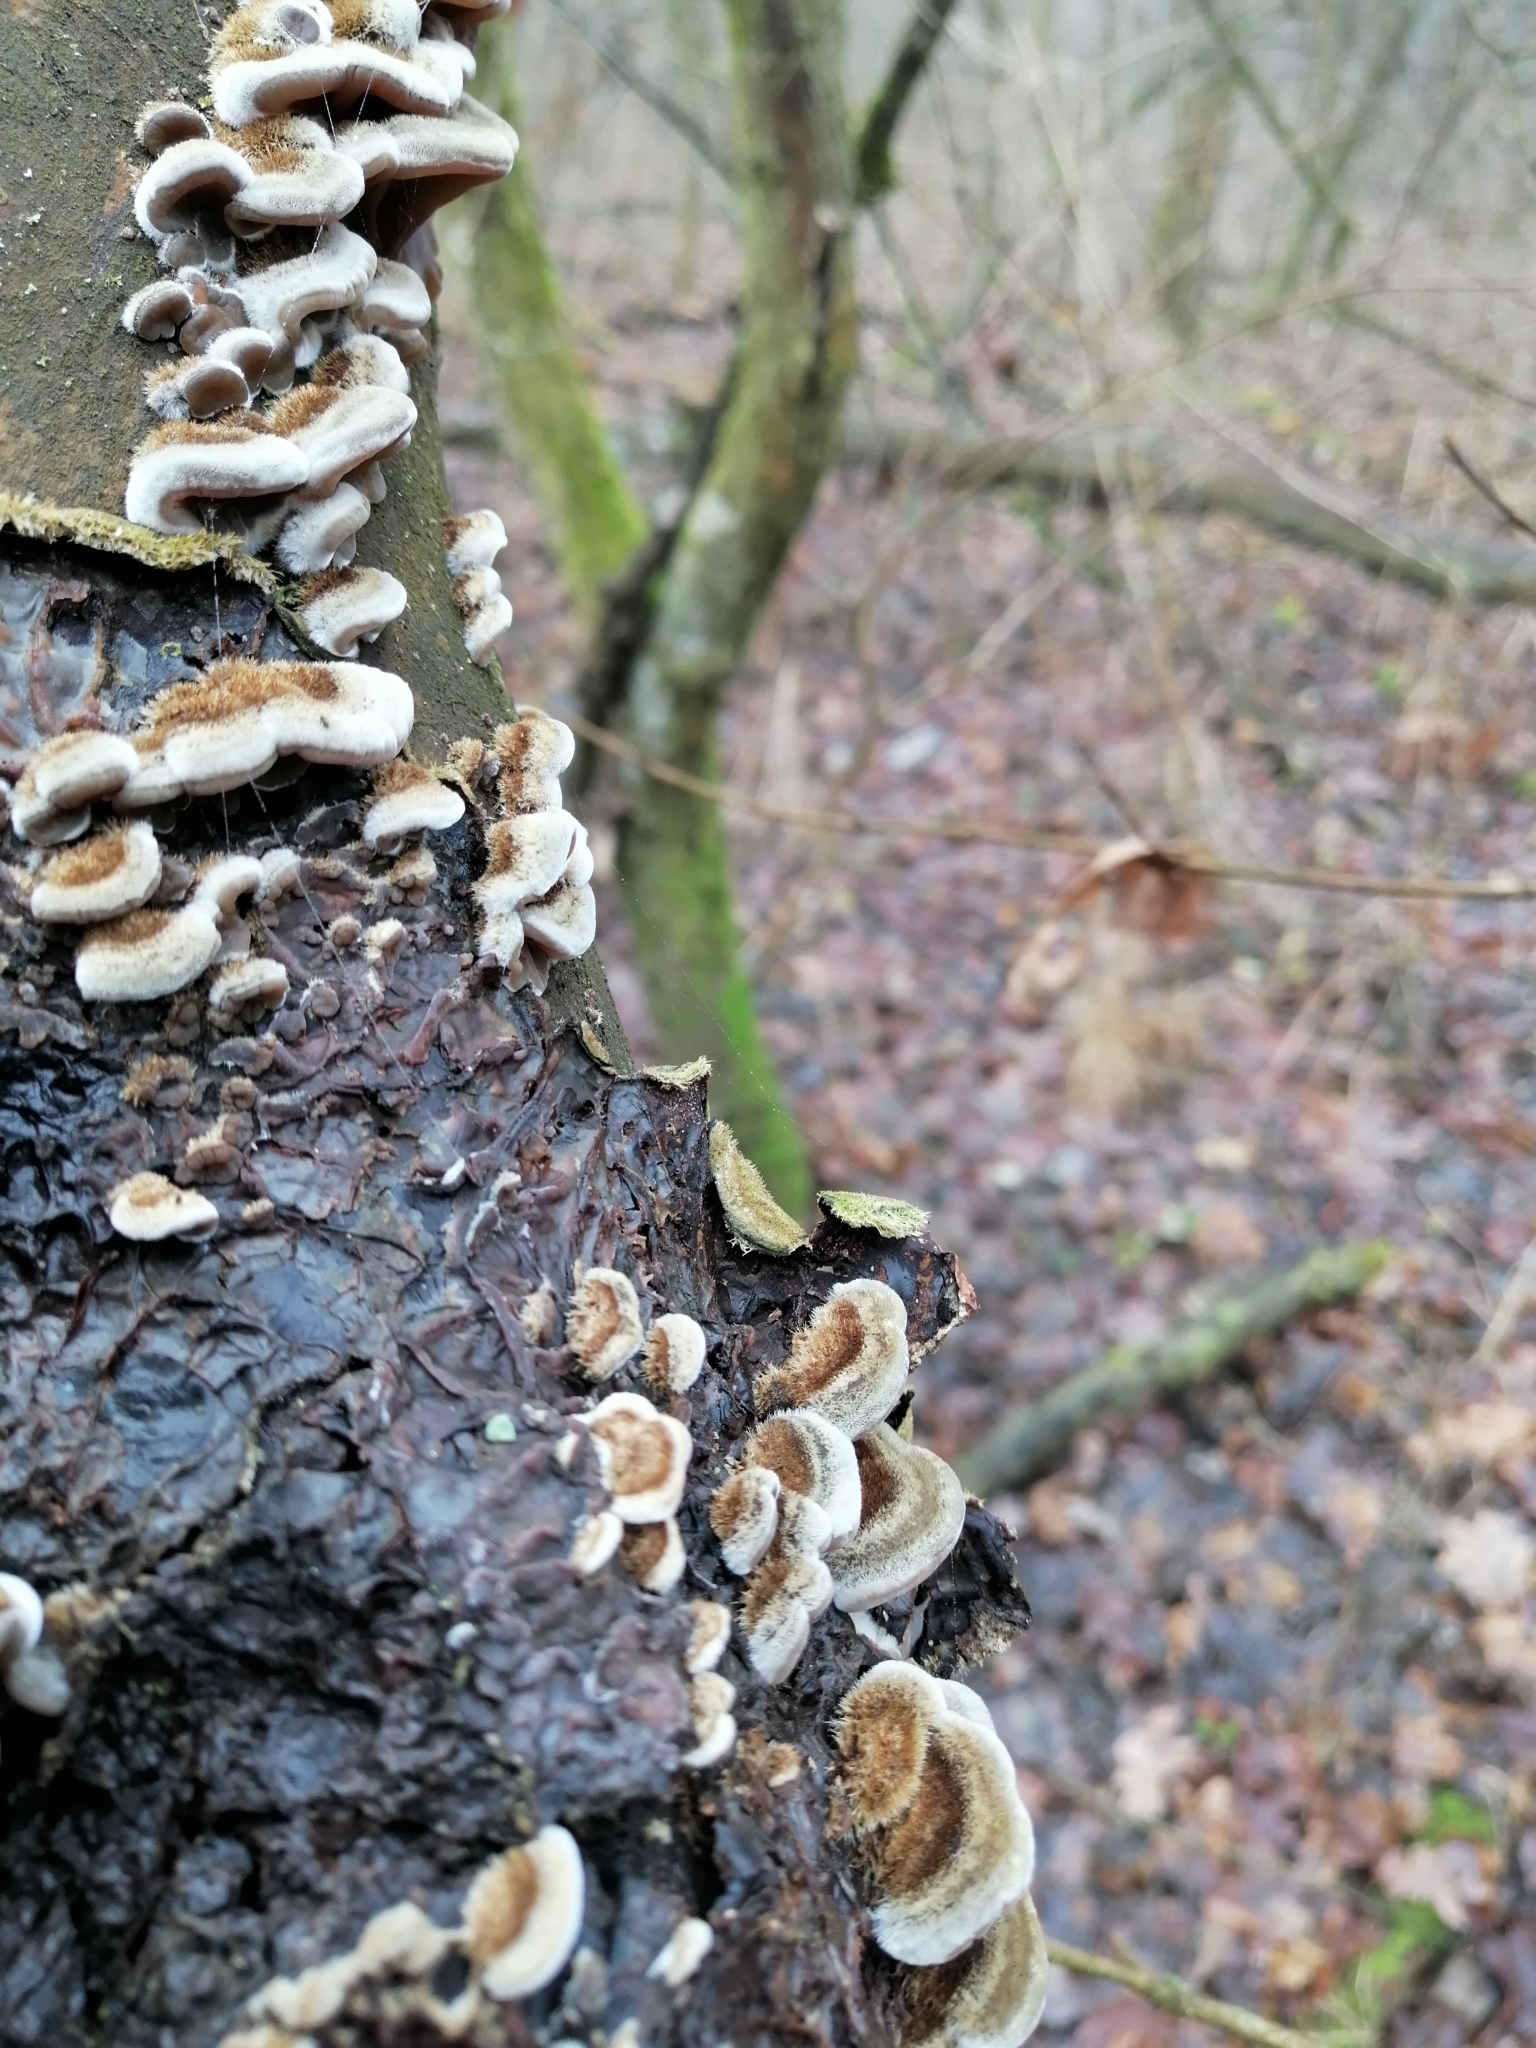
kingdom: Fungi
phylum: Basidiomycota
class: Agaricomycetes
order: Auriculariales
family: Auriculariaceae
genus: Auricularia
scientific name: Auricularia mesenterica
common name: Tripe fungus
